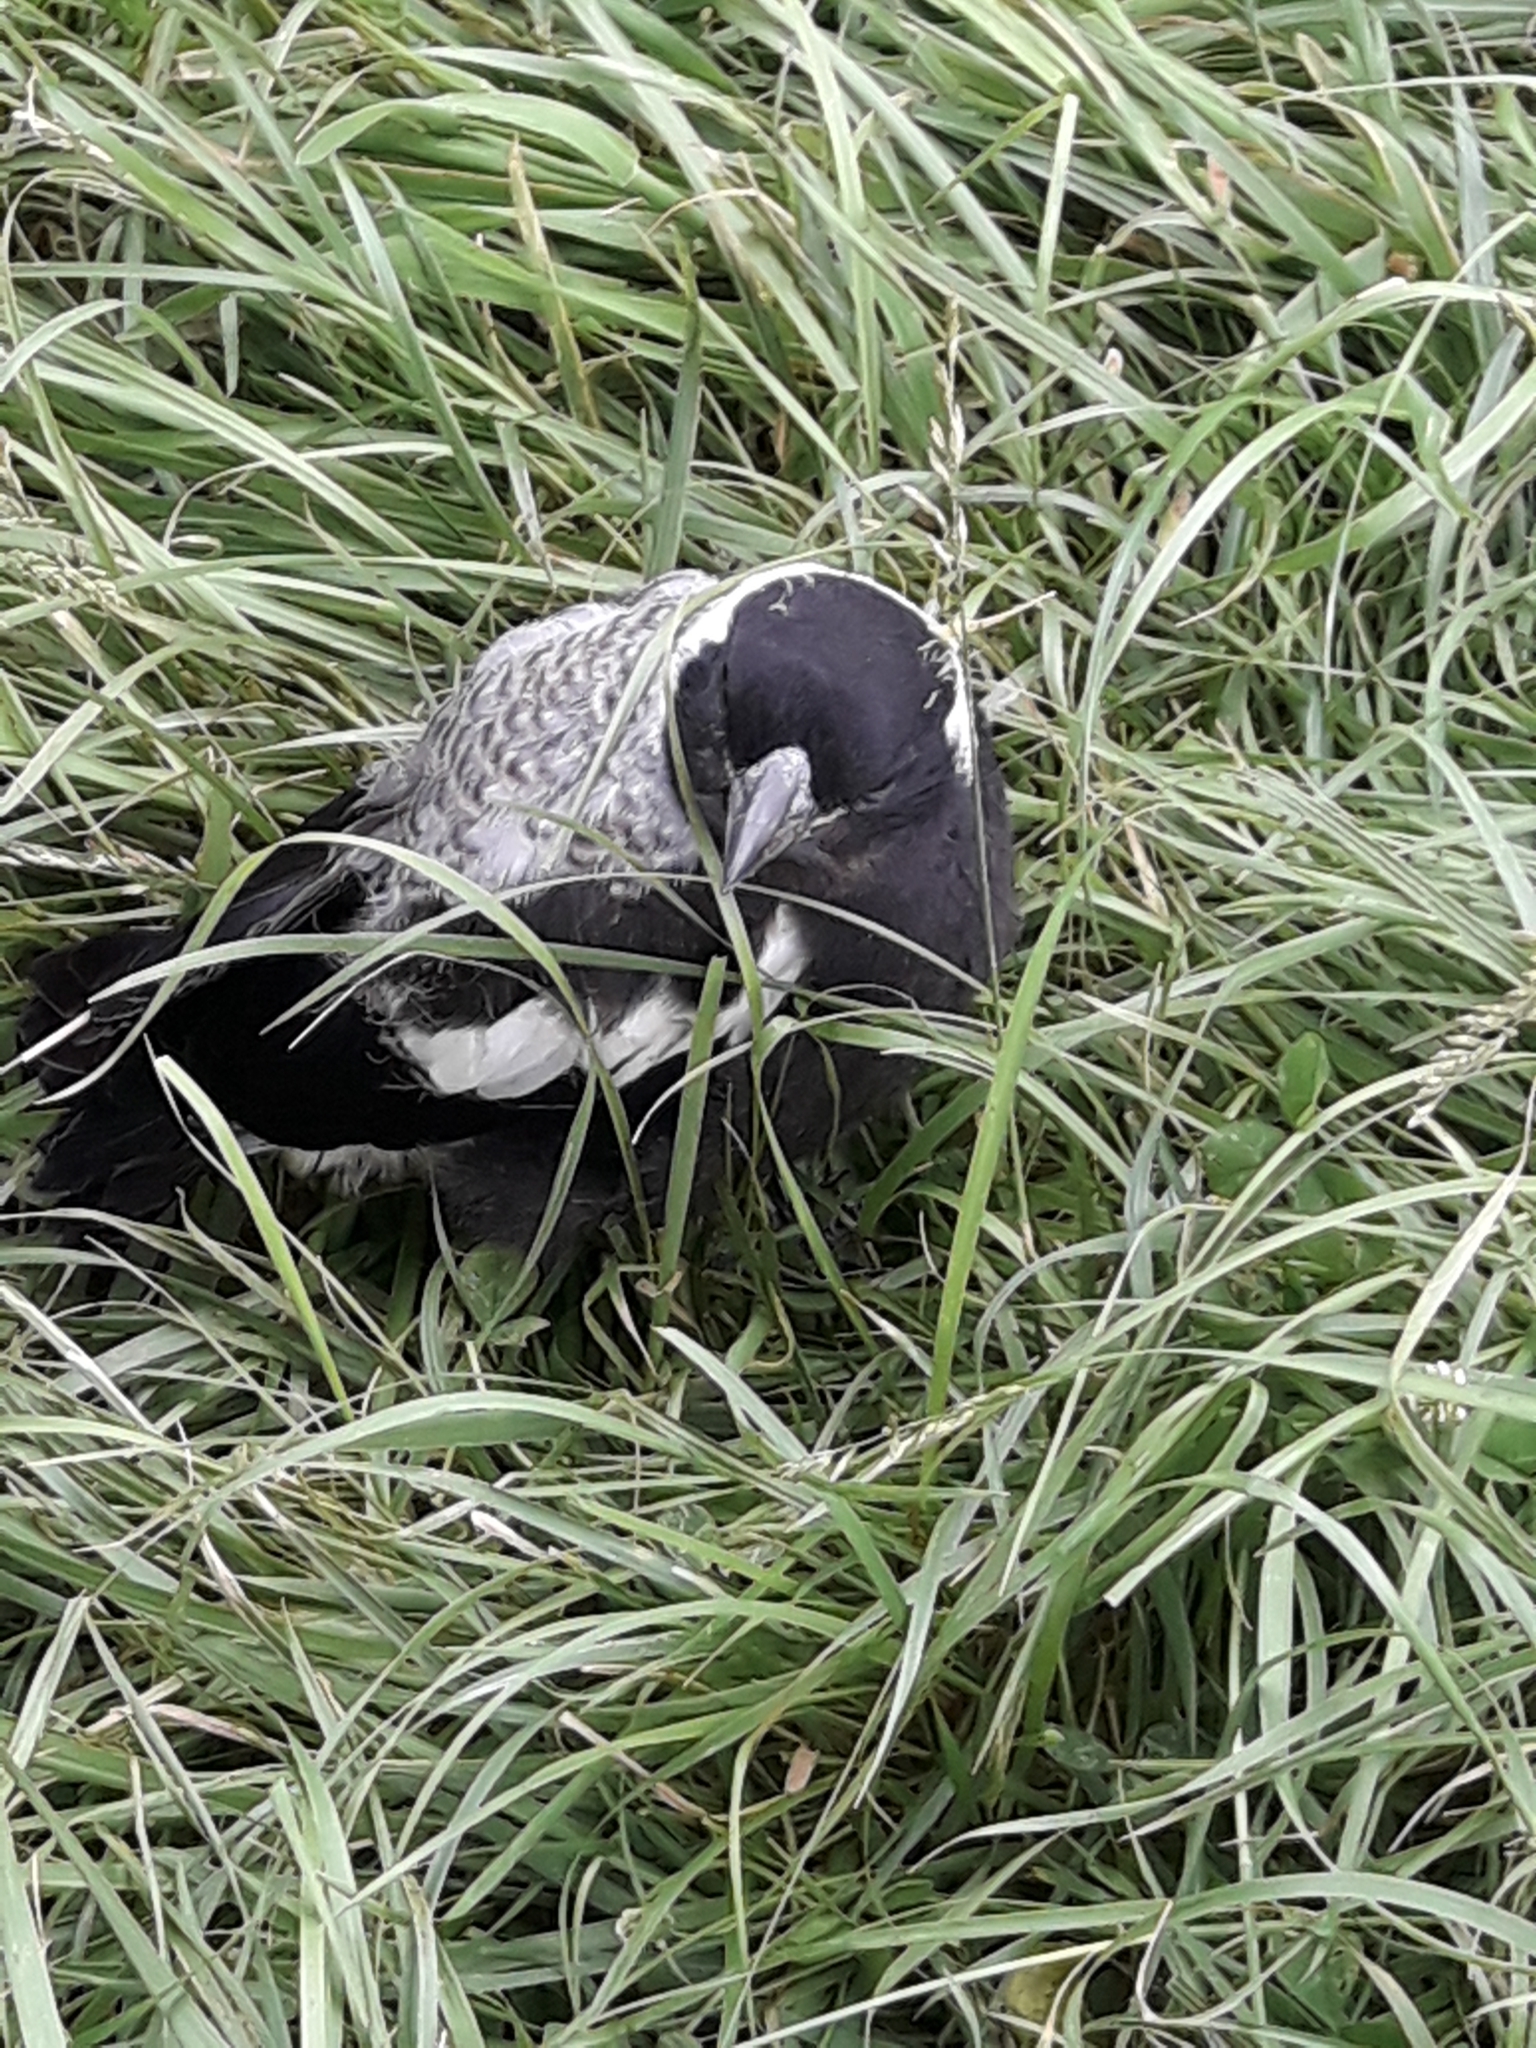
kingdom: Animalia
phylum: Chordata
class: Aves
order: Passeriformes
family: Cracticidae
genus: Gymnorhina
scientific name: Gymnorhina tibicen
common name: Australian magpie
